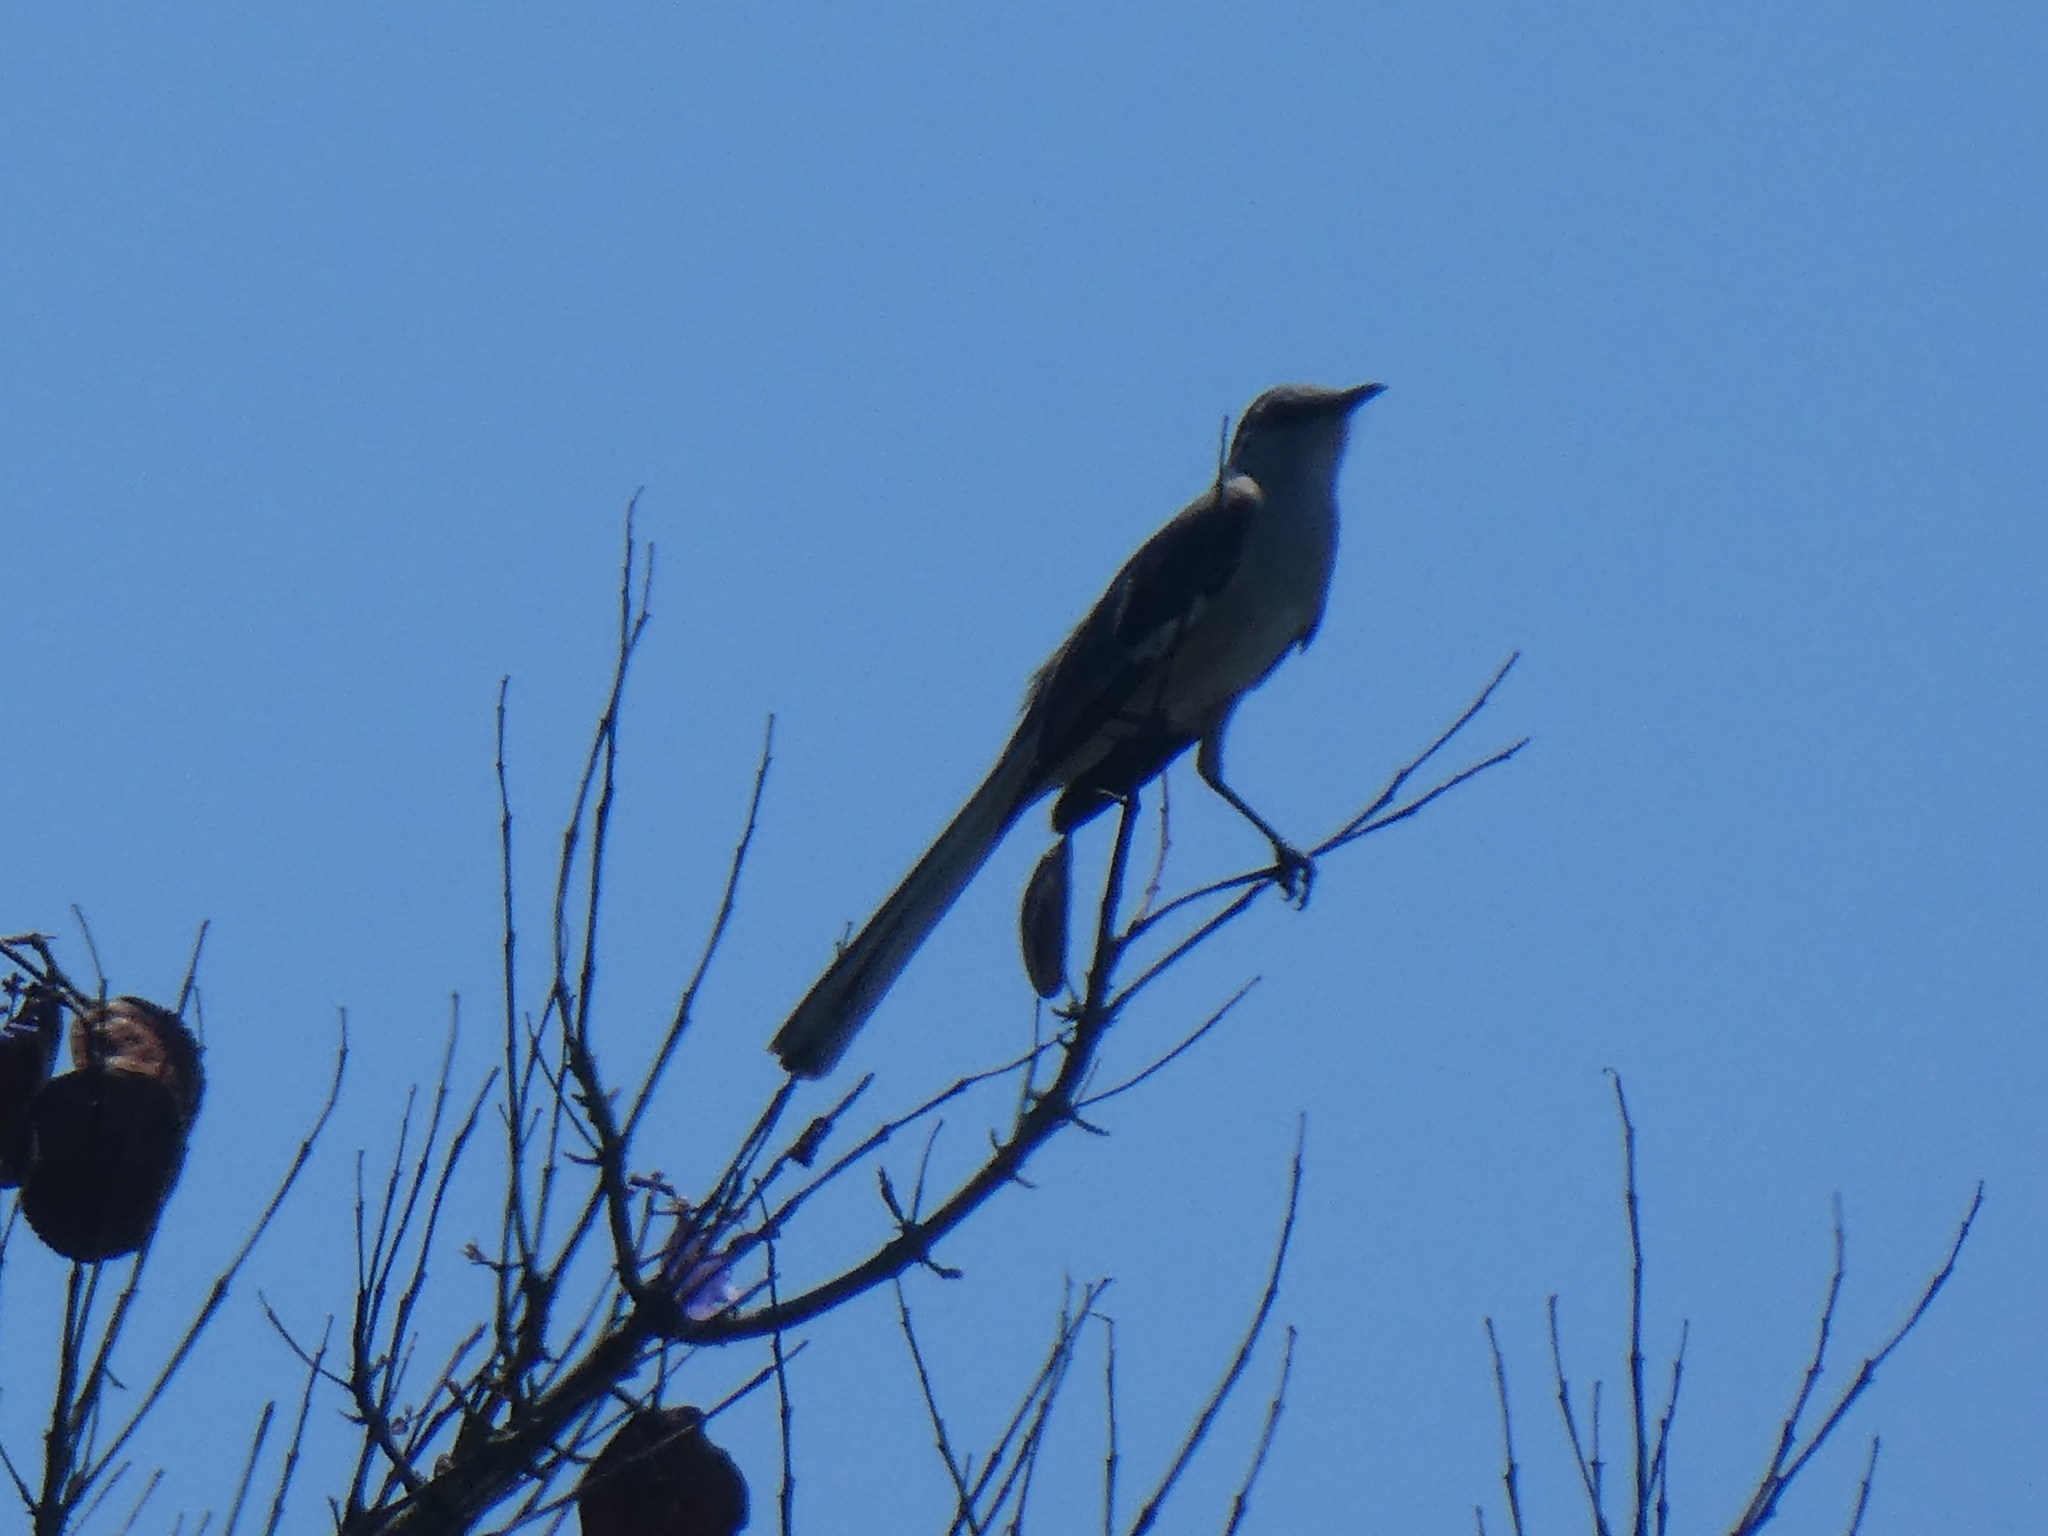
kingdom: Animalia
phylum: Chordata
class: Aves
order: Passeriformes
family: Mimidae
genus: Mimus
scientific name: Mimus polyglottos
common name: Northern mockingbird
